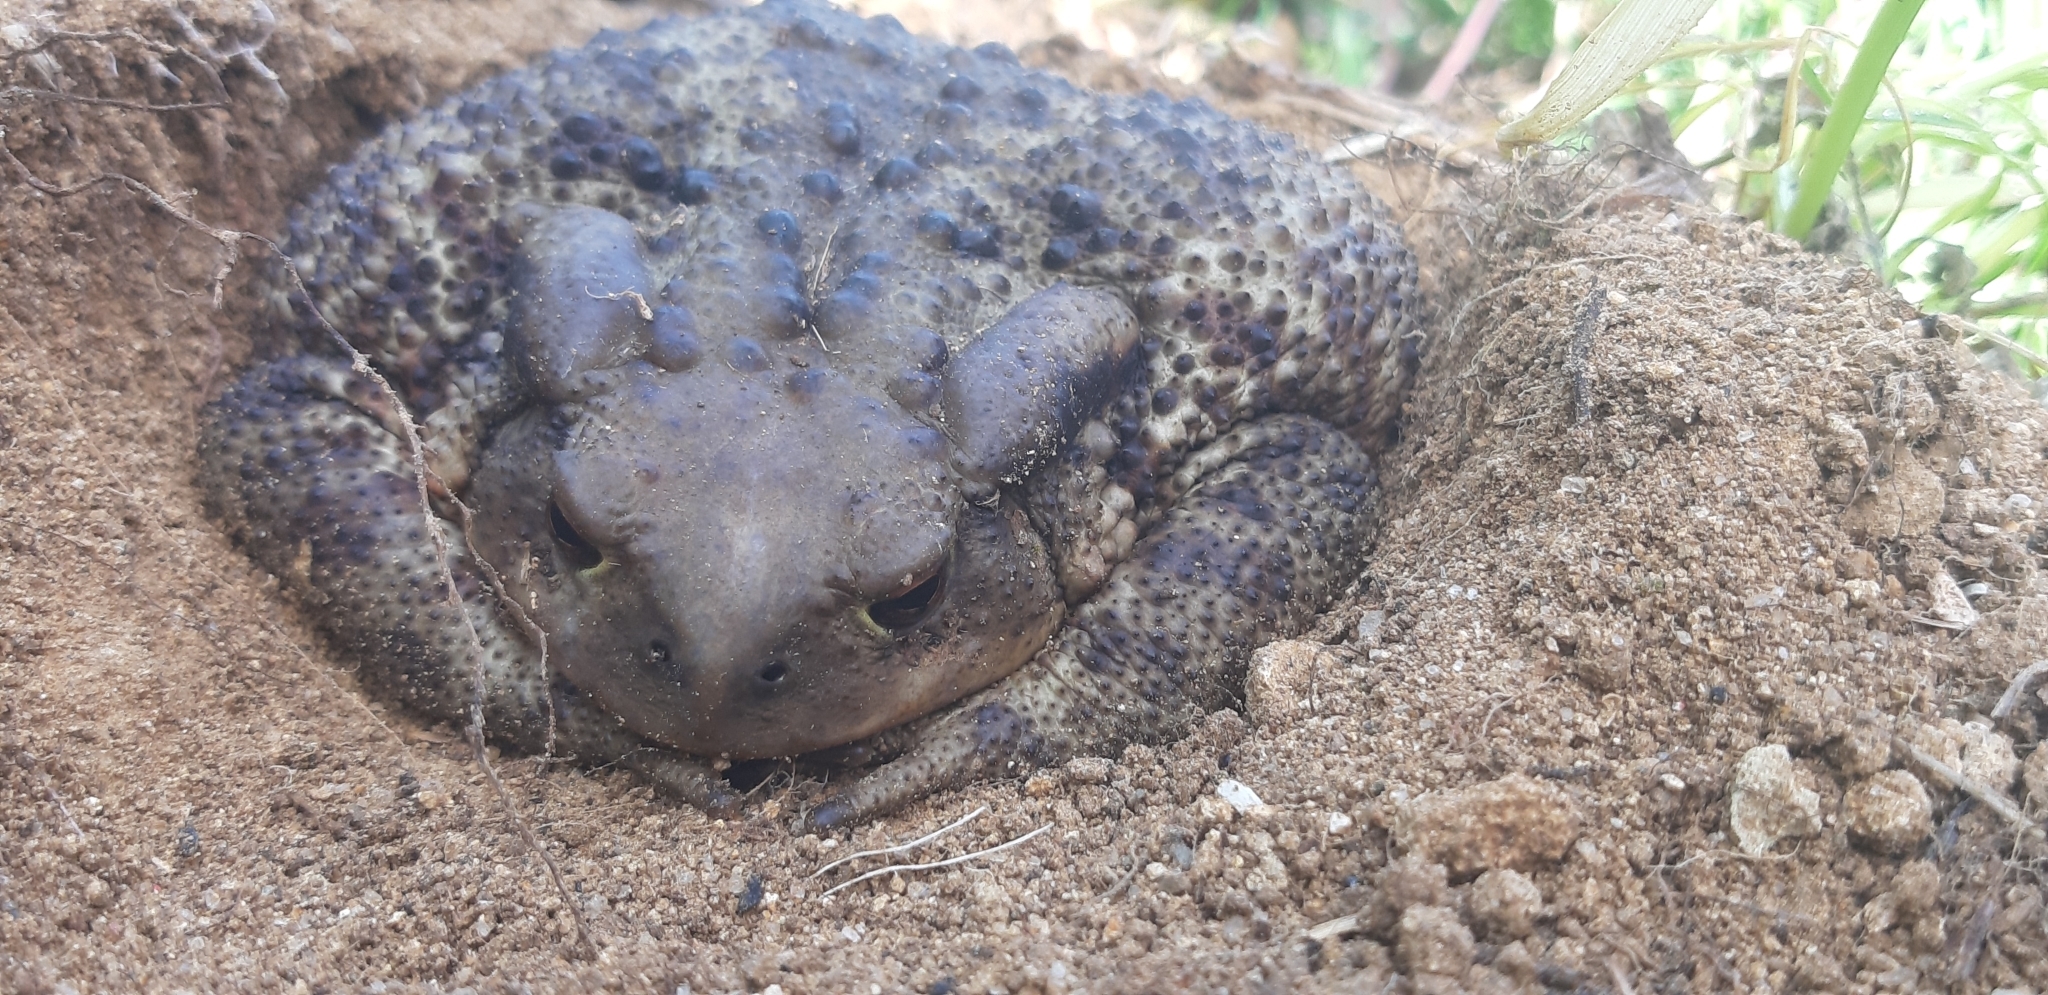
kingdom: Animalia
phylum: Chordata
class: Amphibia
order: Anura
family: Bufonidae
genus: Bufo
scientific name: Bufo bufo
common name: Common toad
